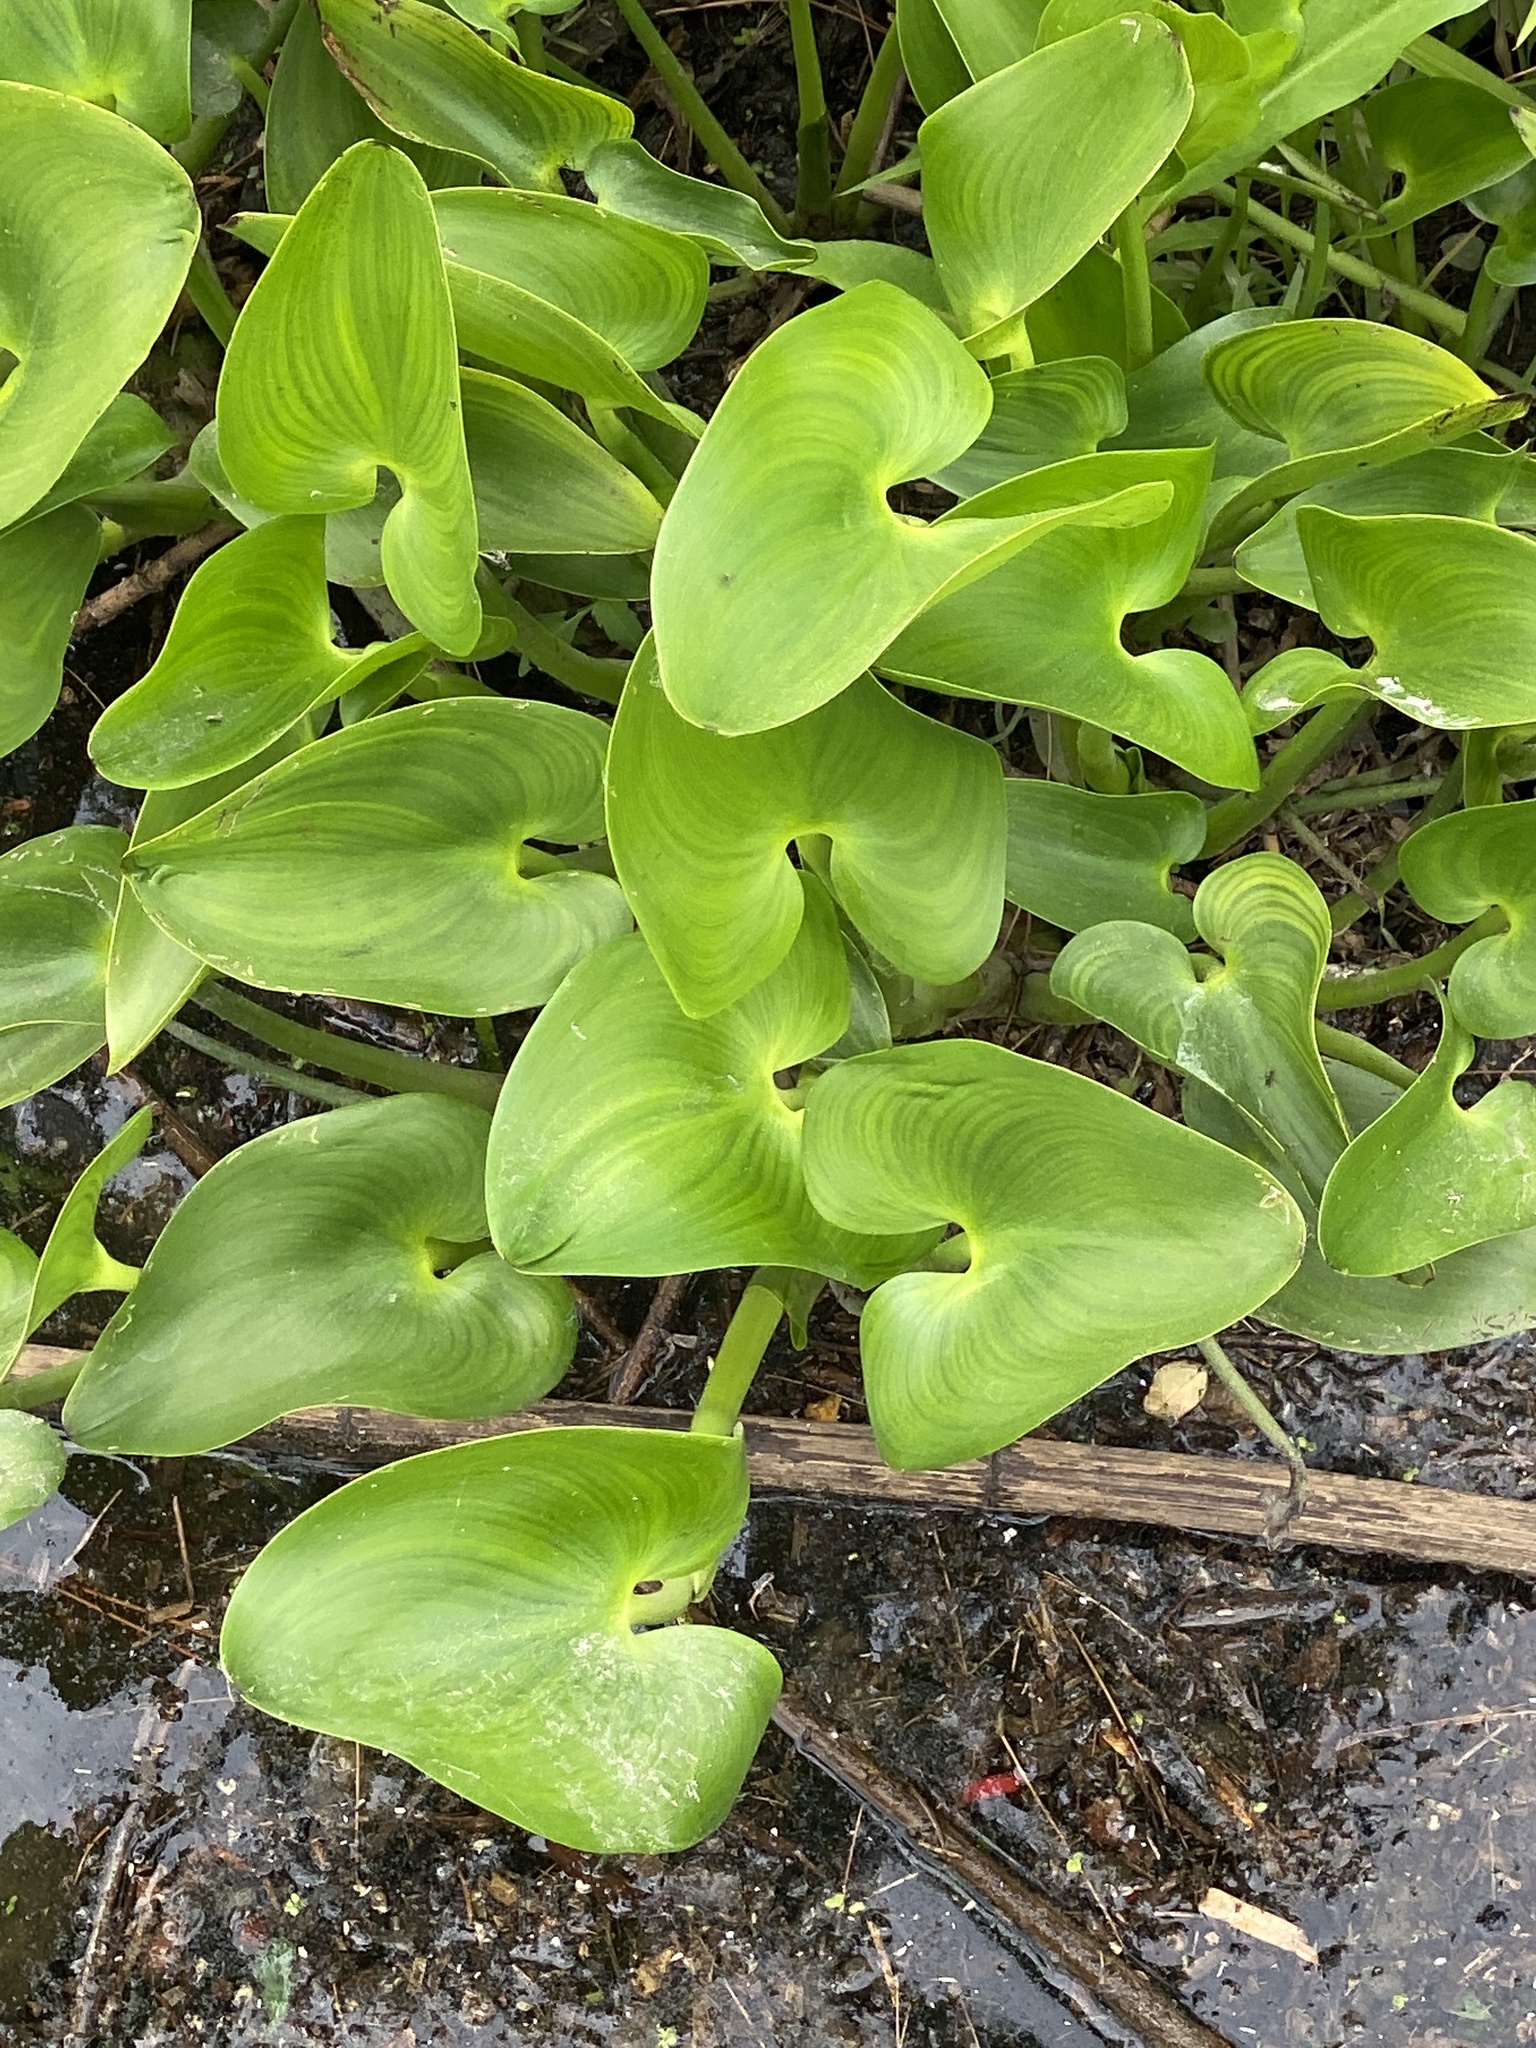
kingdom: Plantae
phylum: Tracheophyta
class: Liliopsida
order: Commelinales
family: Pontederiaceae
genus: Pontederia
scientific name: Pontederia cordata
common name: Pickerelweed
